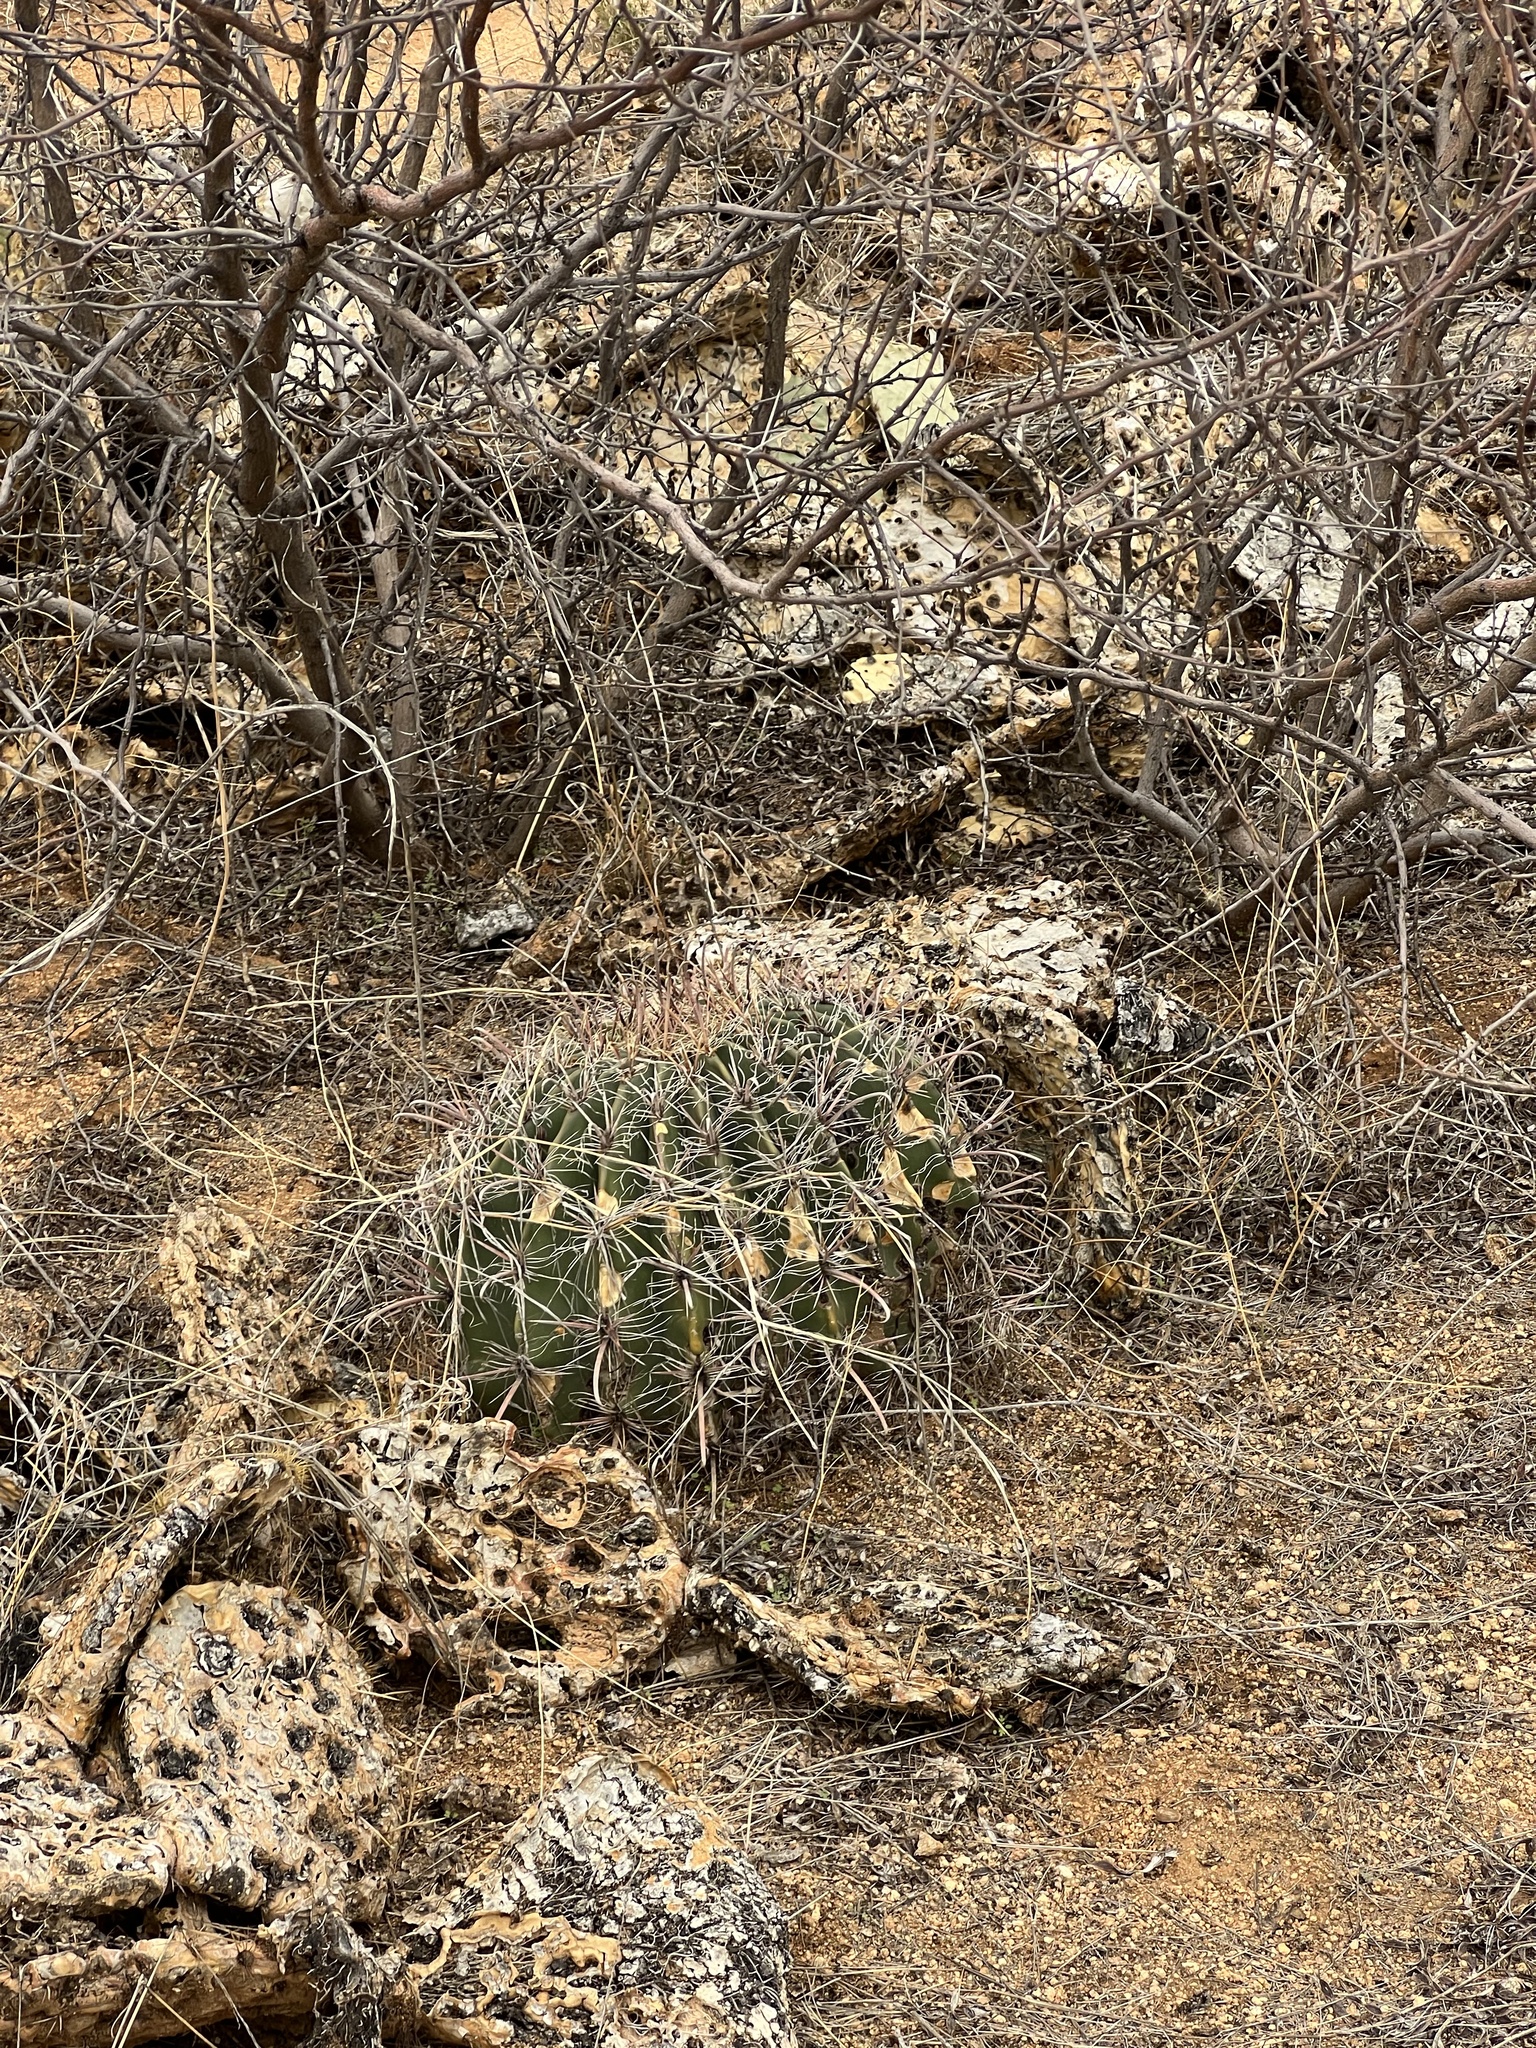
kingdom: Plantae
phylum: Tracheophyta
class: Magnoliopsida
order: Caryophyllales
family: Cactaceae
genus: Ferocactus
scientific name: Ferocactus wislizeni
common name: Candy barrel cactus
